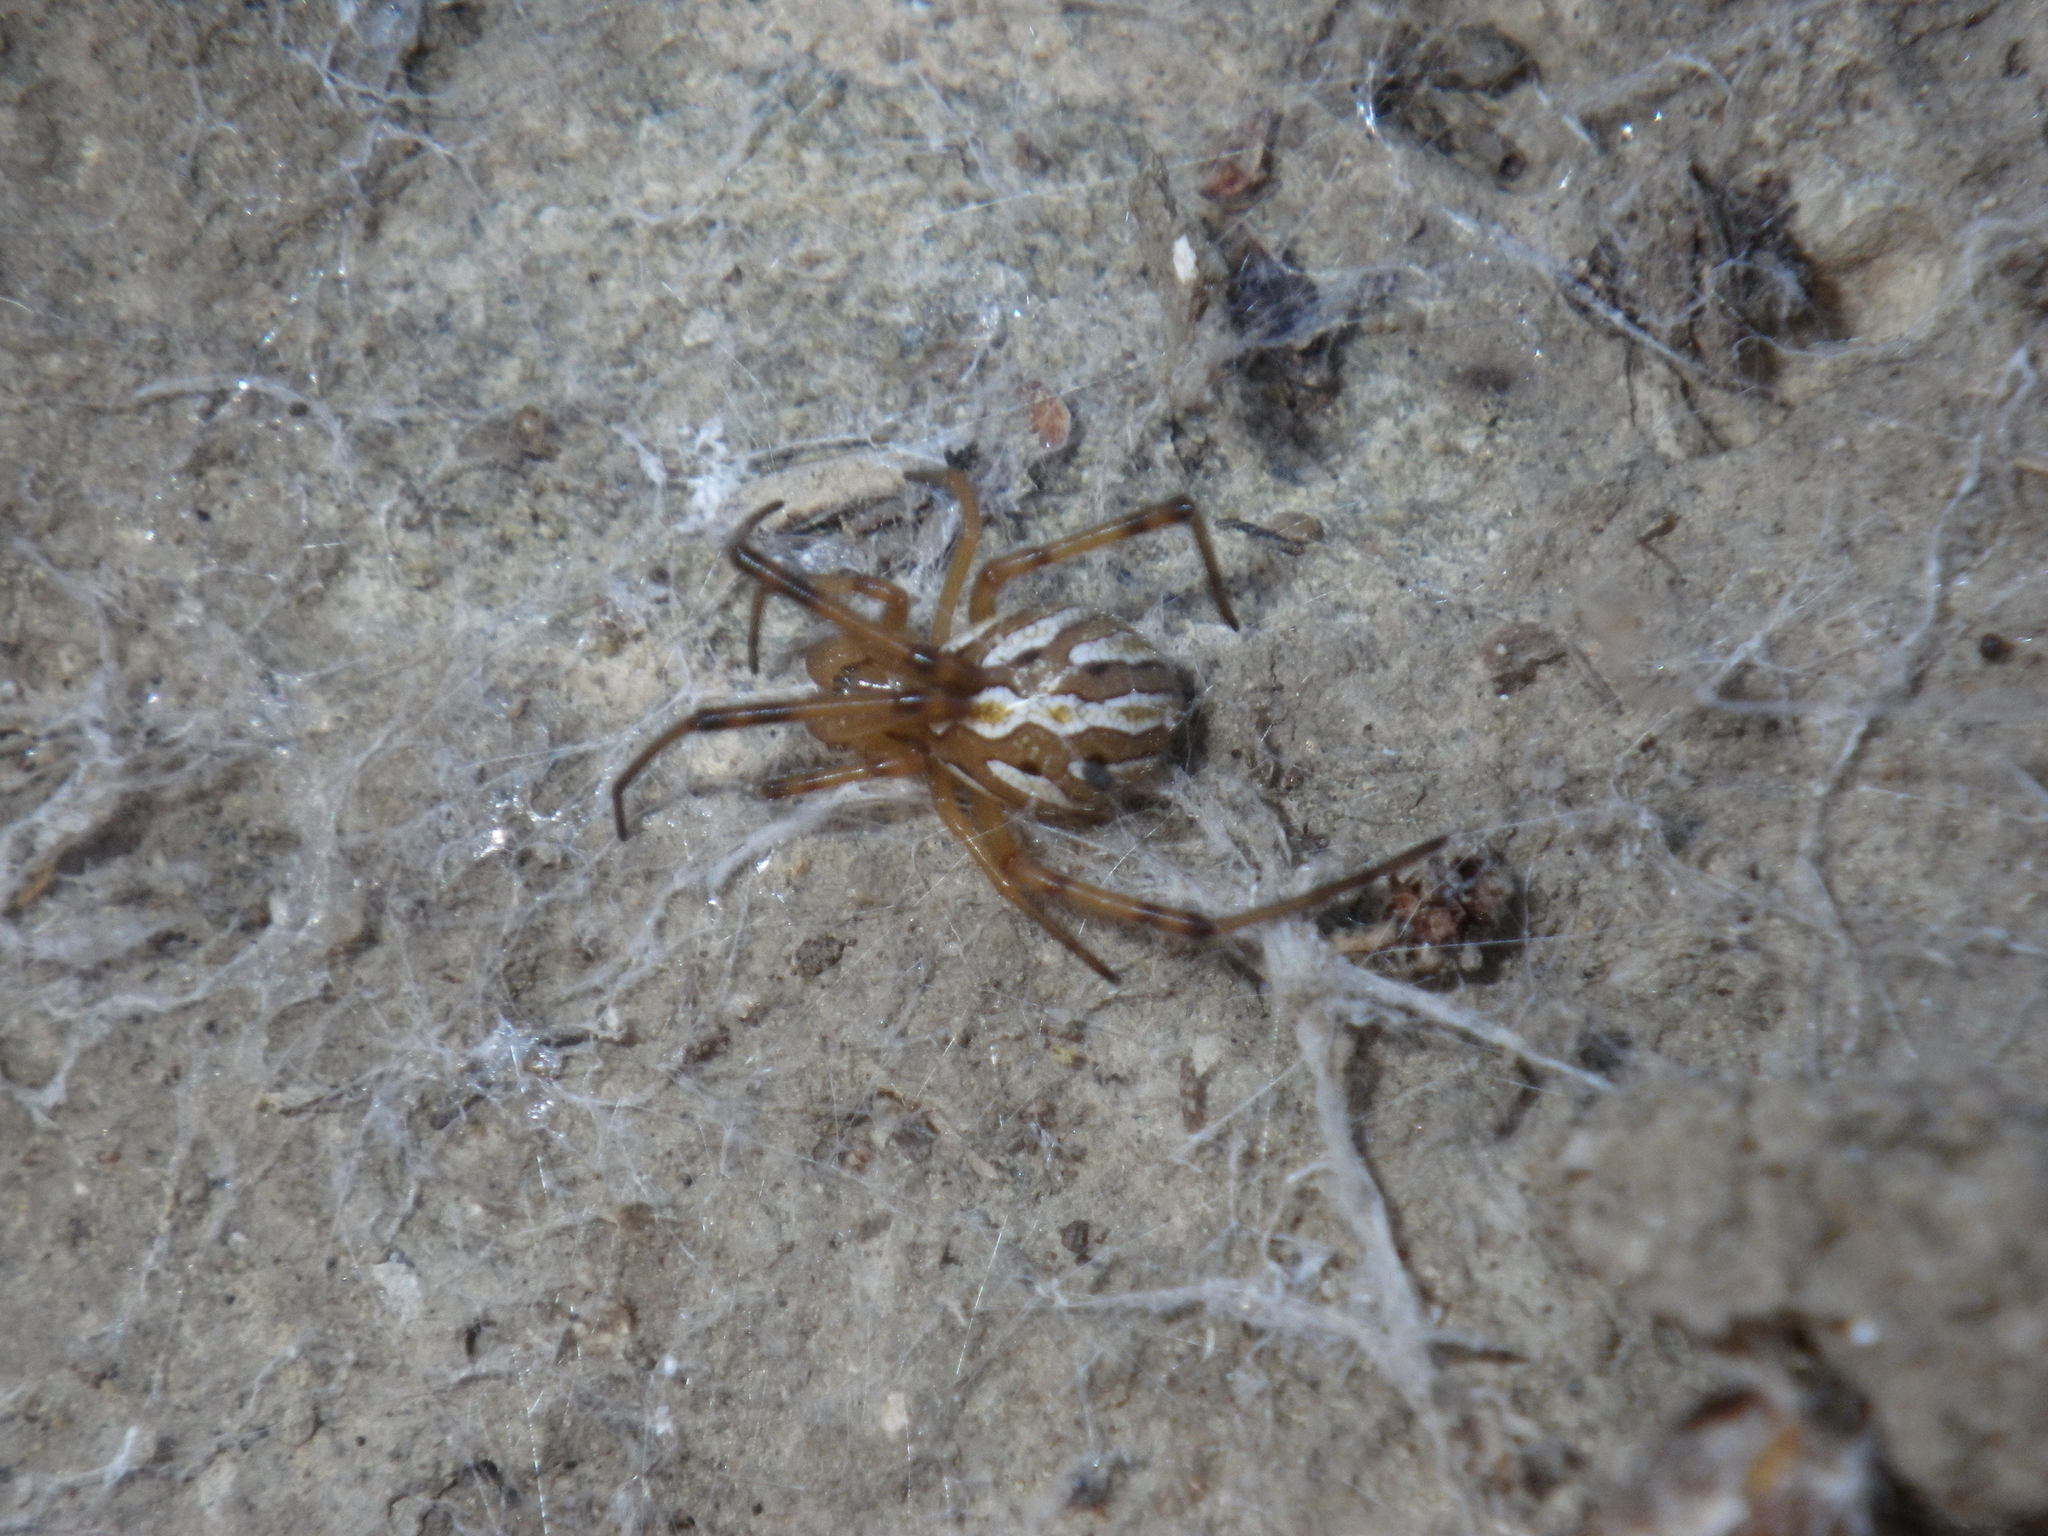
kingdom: Animalia
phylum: Arthropoda
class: Arachnida
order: Araneae
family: Theridiidae
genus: Latrodectus
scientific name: Latrodectus hesperus
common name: Western black widow
